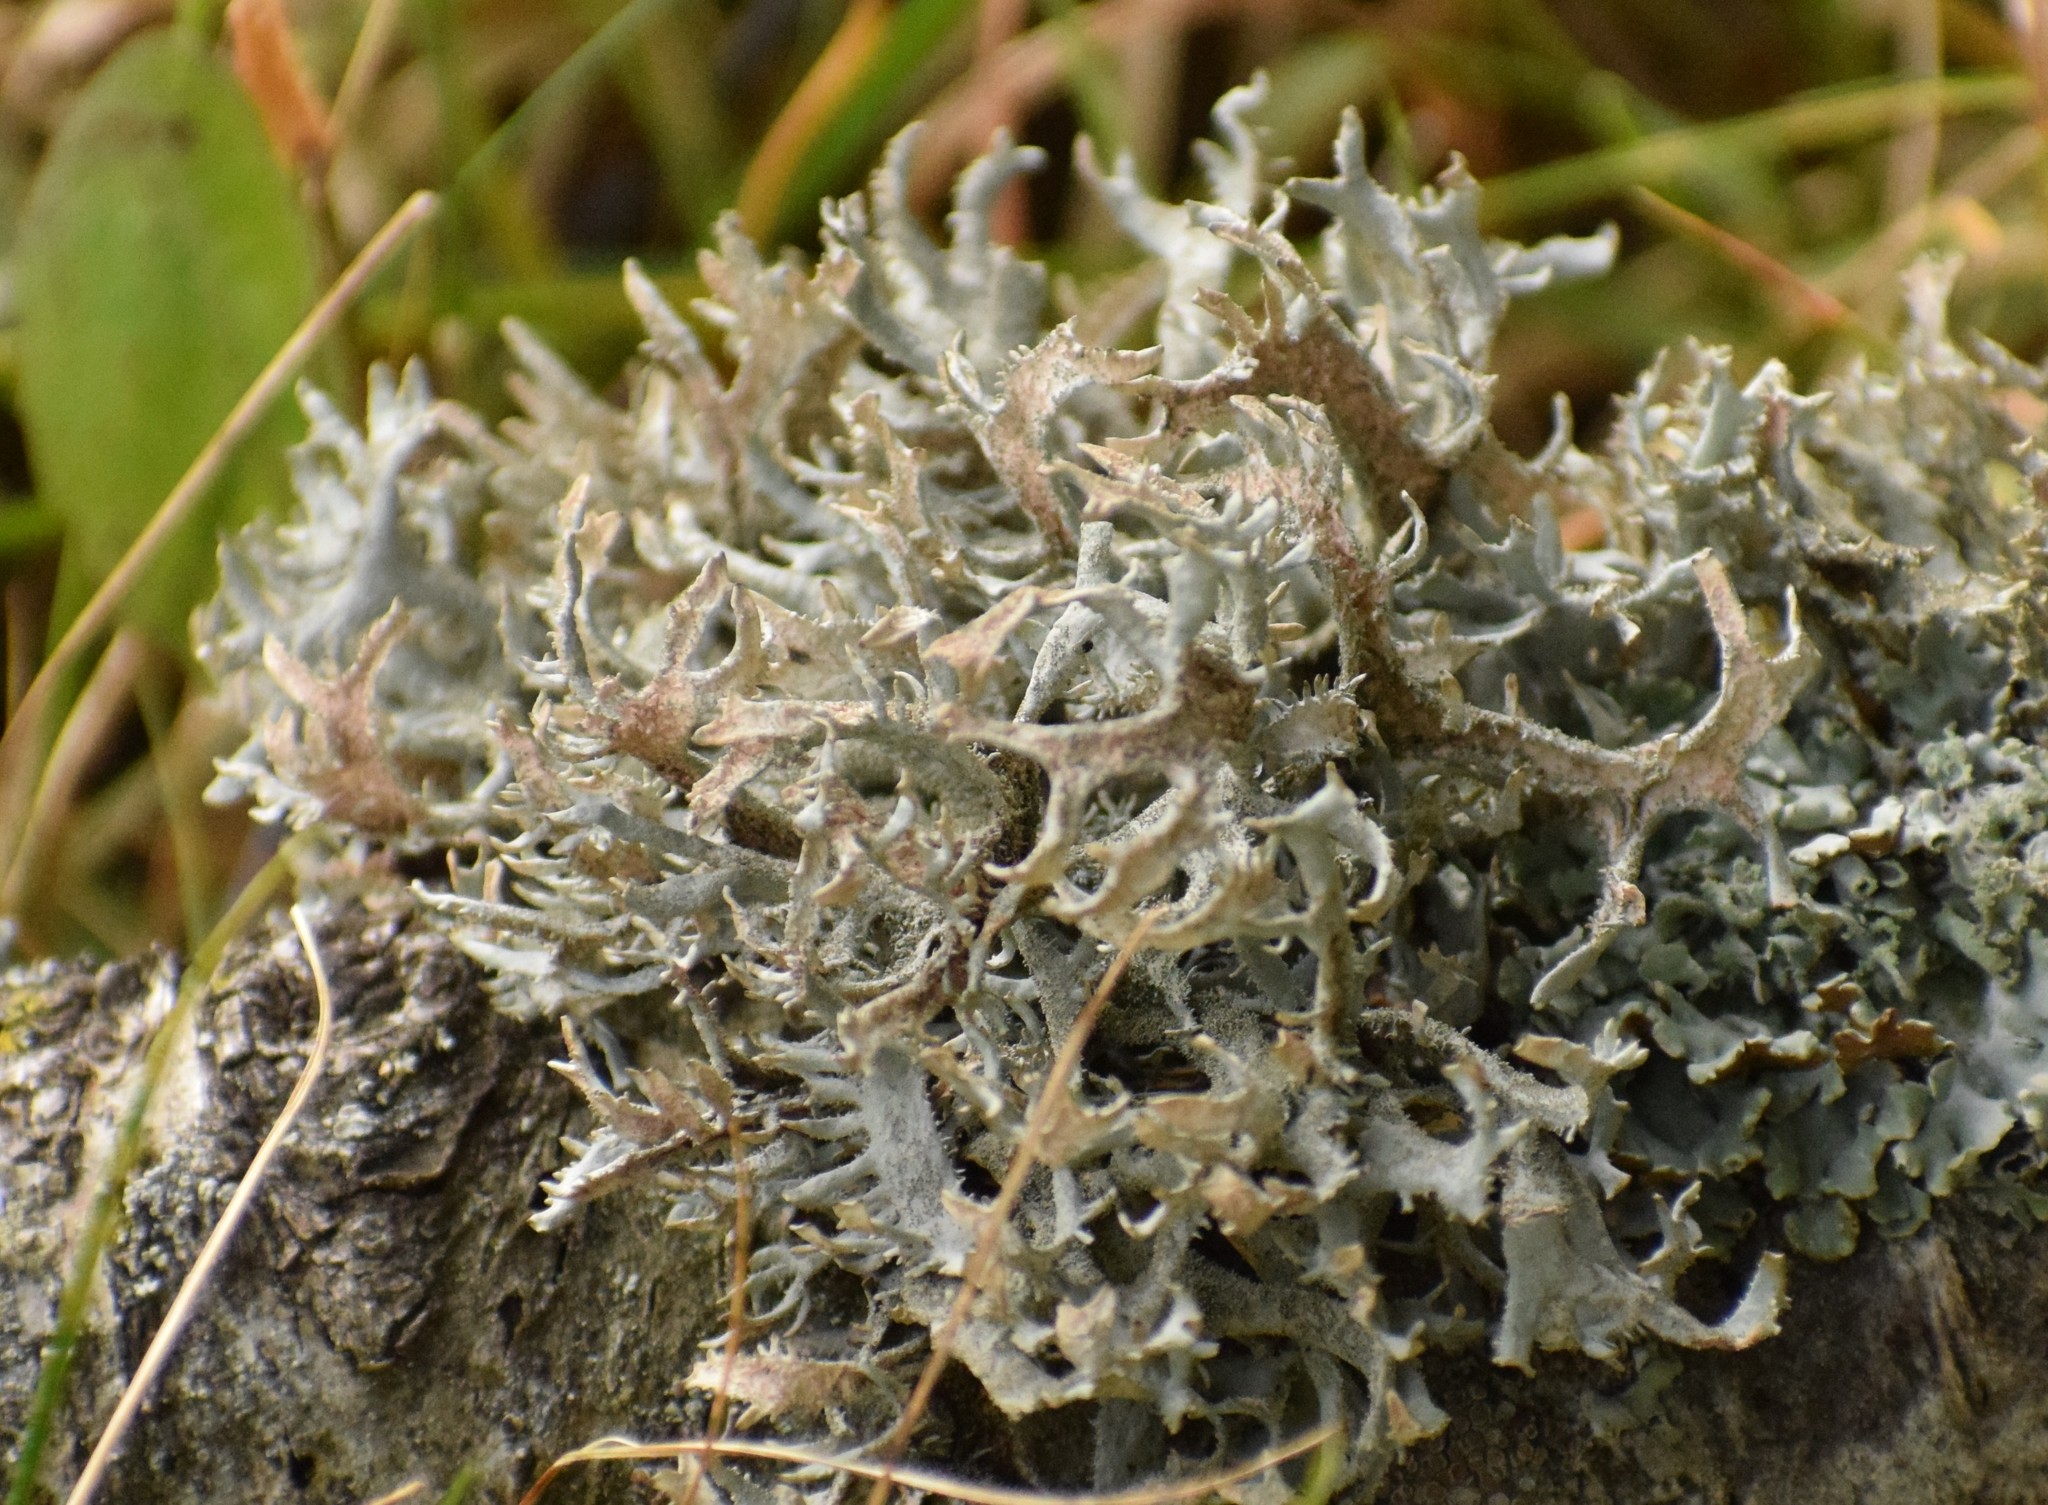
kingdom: Fungi
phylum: Ascomycota
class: Lecanoromycetes
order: Lecanorales
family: Parmeliaceae
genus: Pseudevernia
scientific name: Pseudevernia furfuracea
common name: Tree moss
